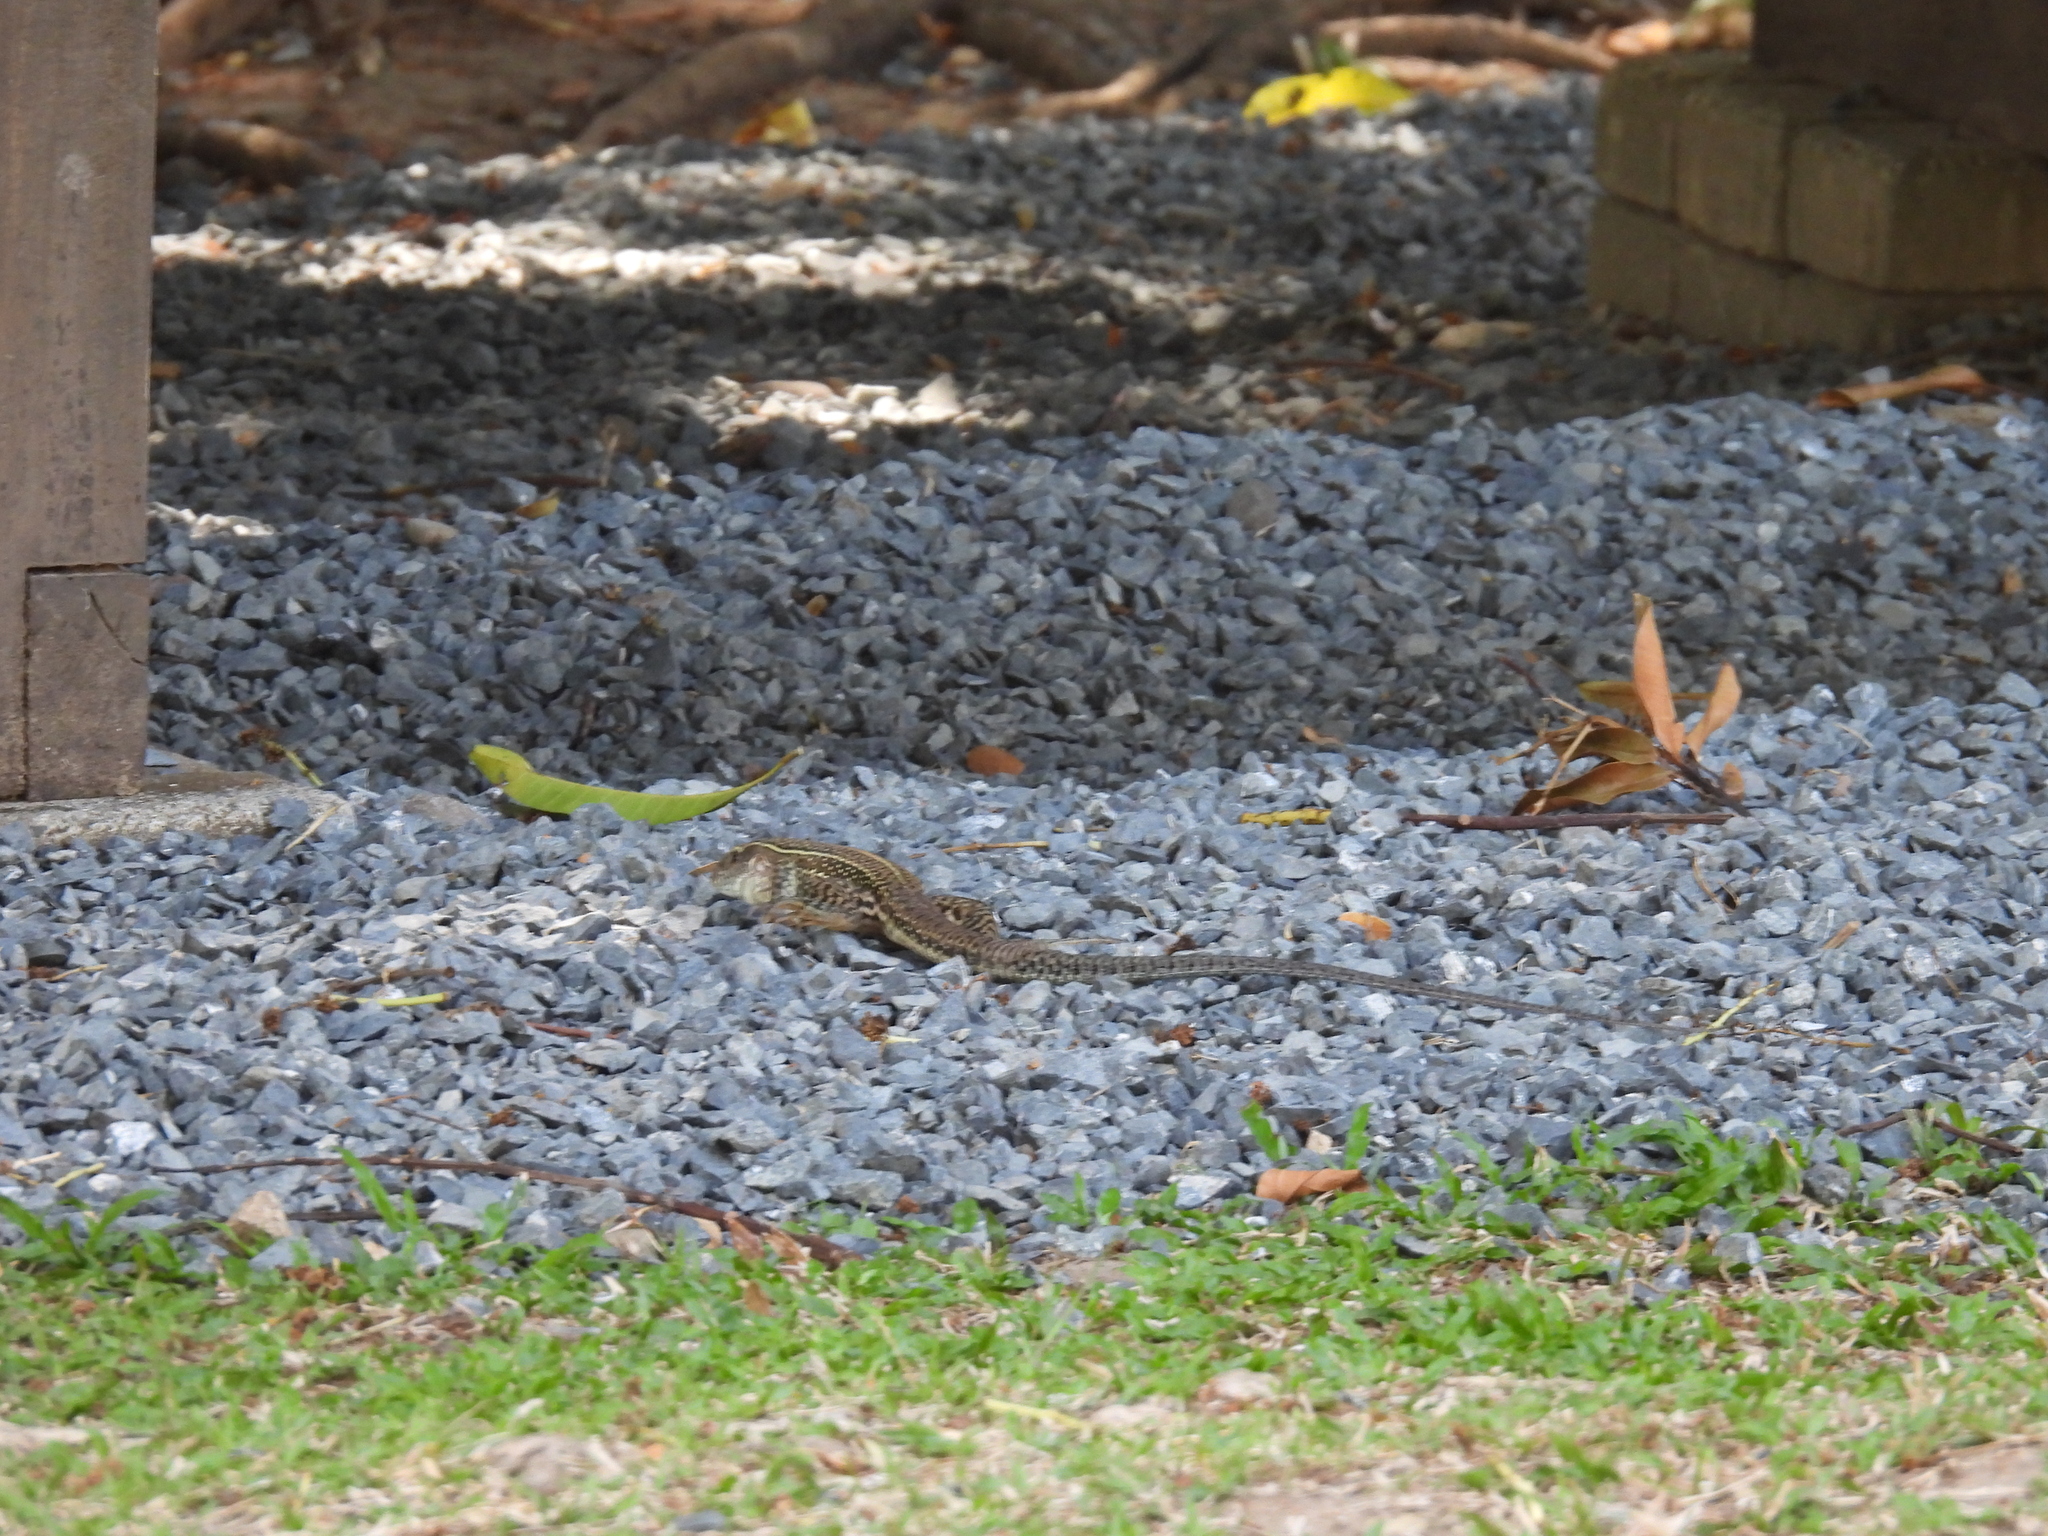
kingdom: Animalia
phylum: Chordata
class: Squamata
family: Teiidae
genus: Ameiva
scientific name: Ameiva praesignis
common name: Giant ameiva
